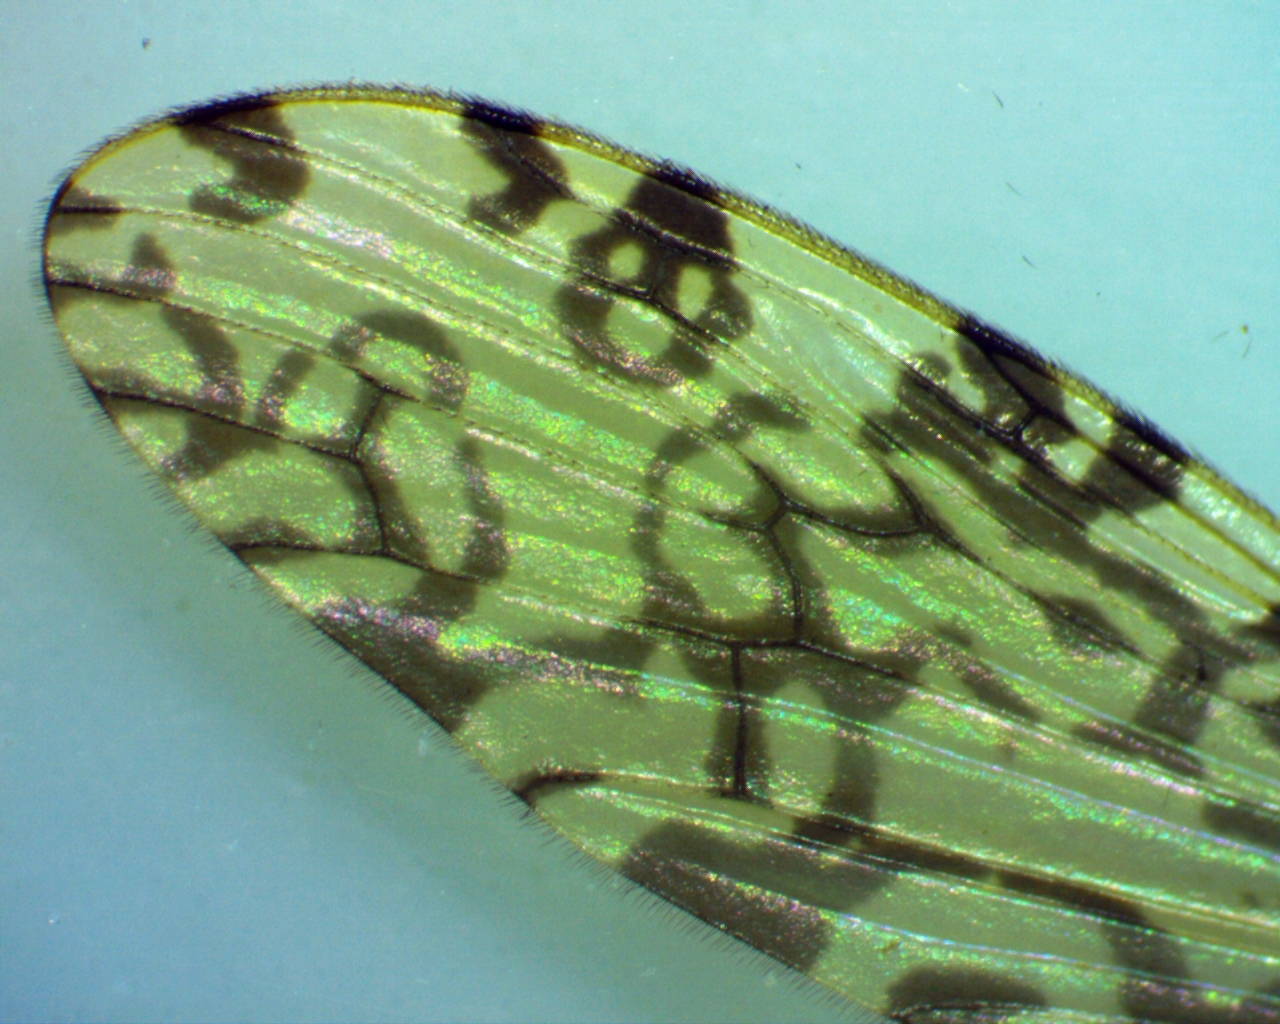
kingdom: Animalia
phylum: Arthropoda
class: Insecta
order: Diptera
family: Limoniidae
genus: Limonia
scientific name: Limonia annulata
